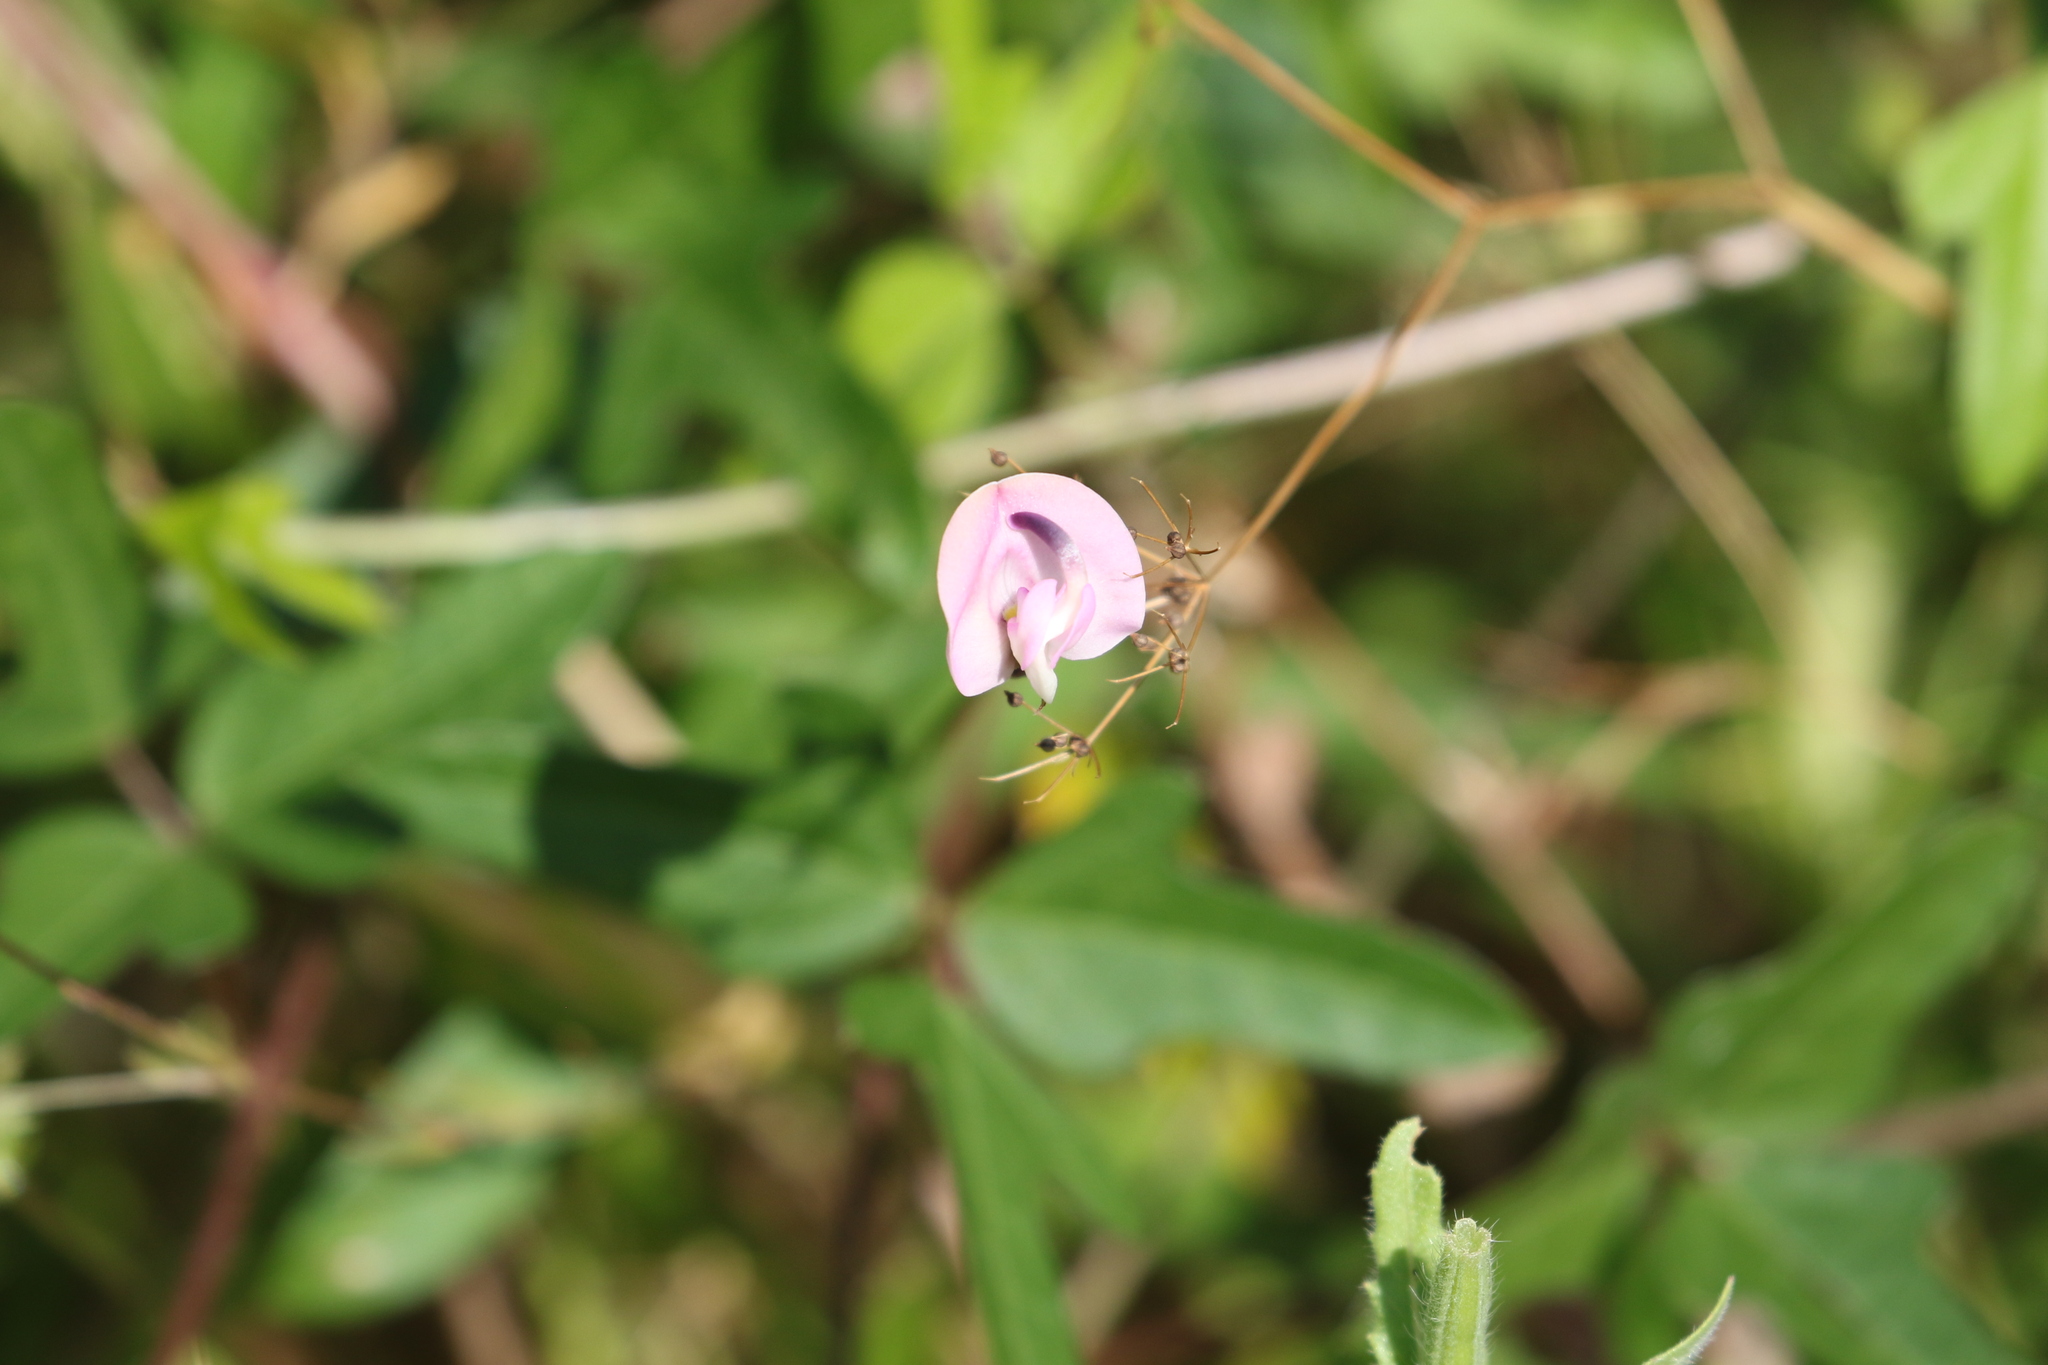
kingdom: Plantae
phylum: Tracheophyta
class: Magnoliopsida
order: Fabales
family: Fabaceae
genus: Strophostyles
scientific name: Strophostyles helvola
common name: Trailing wild bean
